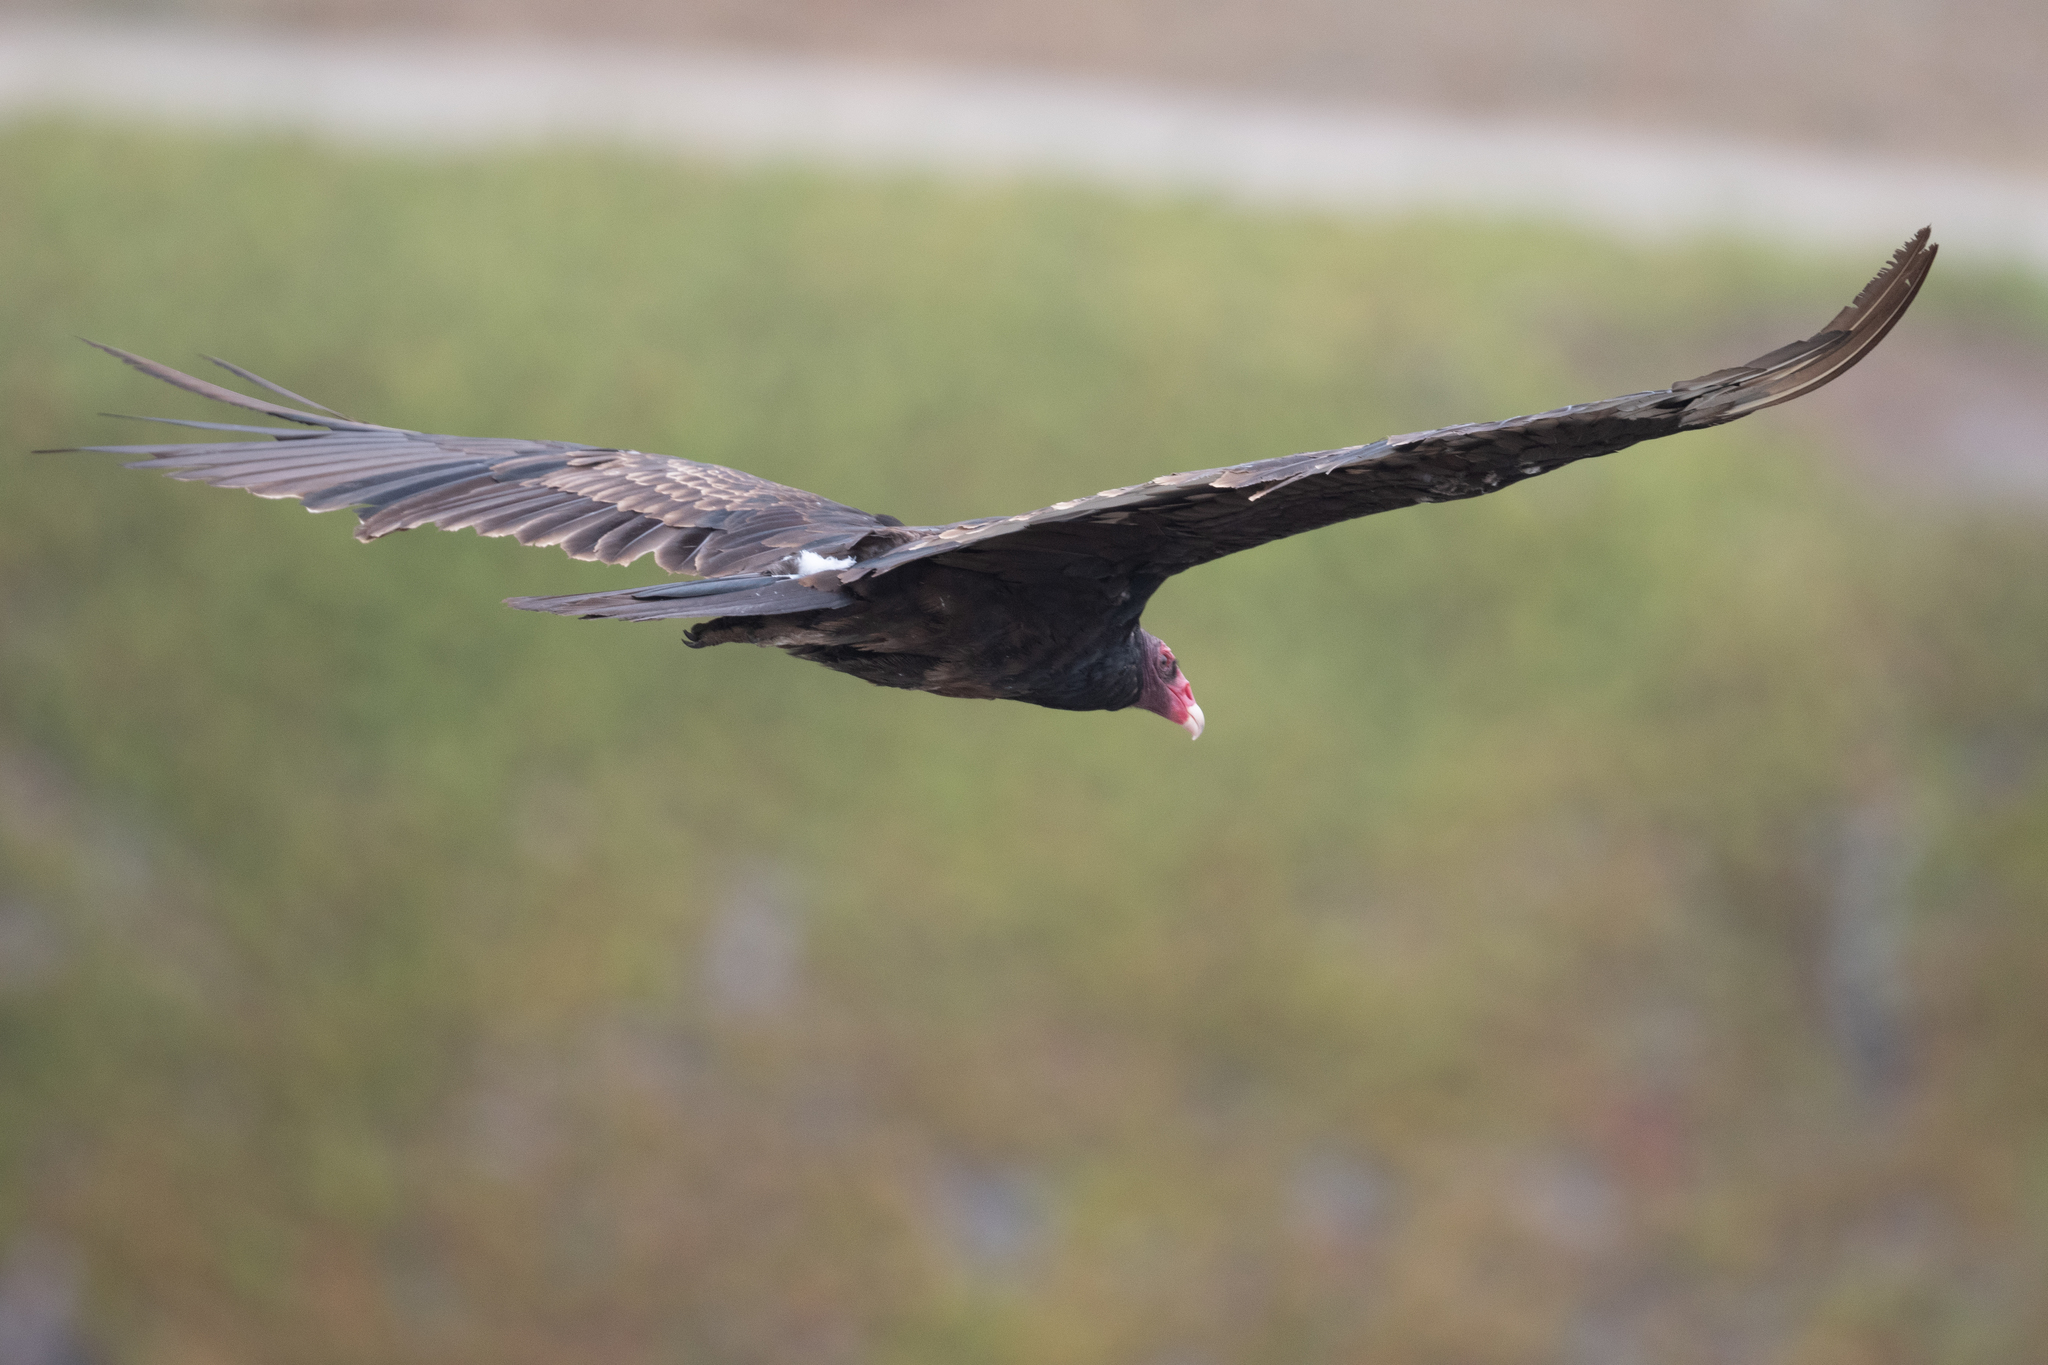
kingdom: Animalia
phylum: Chordata
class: Aves
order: Accipitriformes
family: Cathartidae
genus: Cathartes
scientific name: Cathartes aura
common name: Turkey vulture
